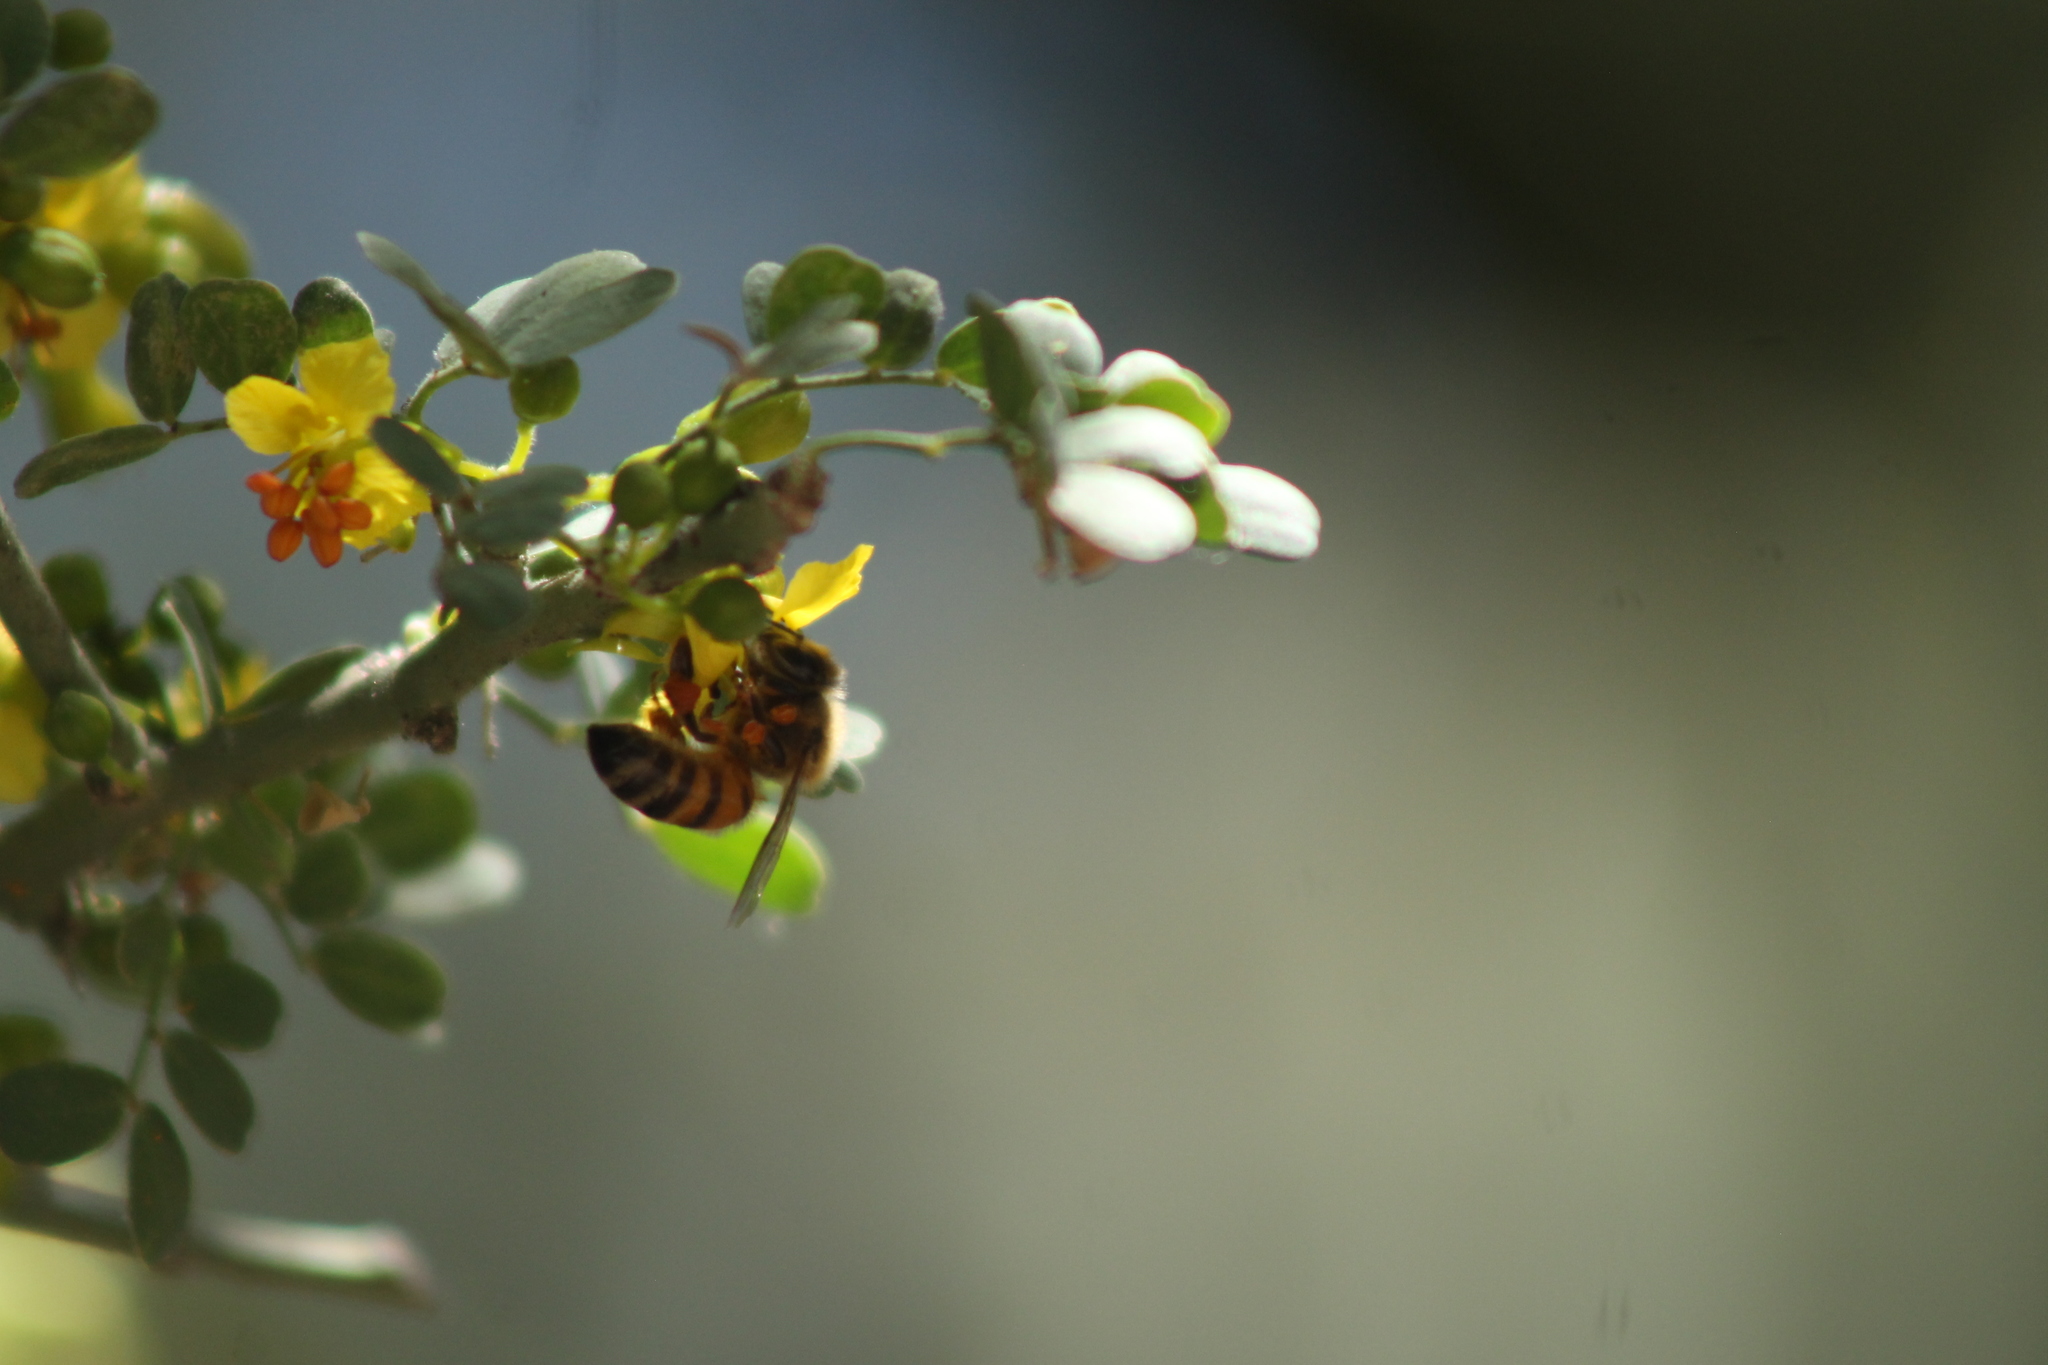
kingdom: Animalia
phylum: Arthropoda
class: Insecta
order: Hymenoptera
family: Apidae
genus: Apis
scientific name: Apis mellifera
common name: Honey bee
